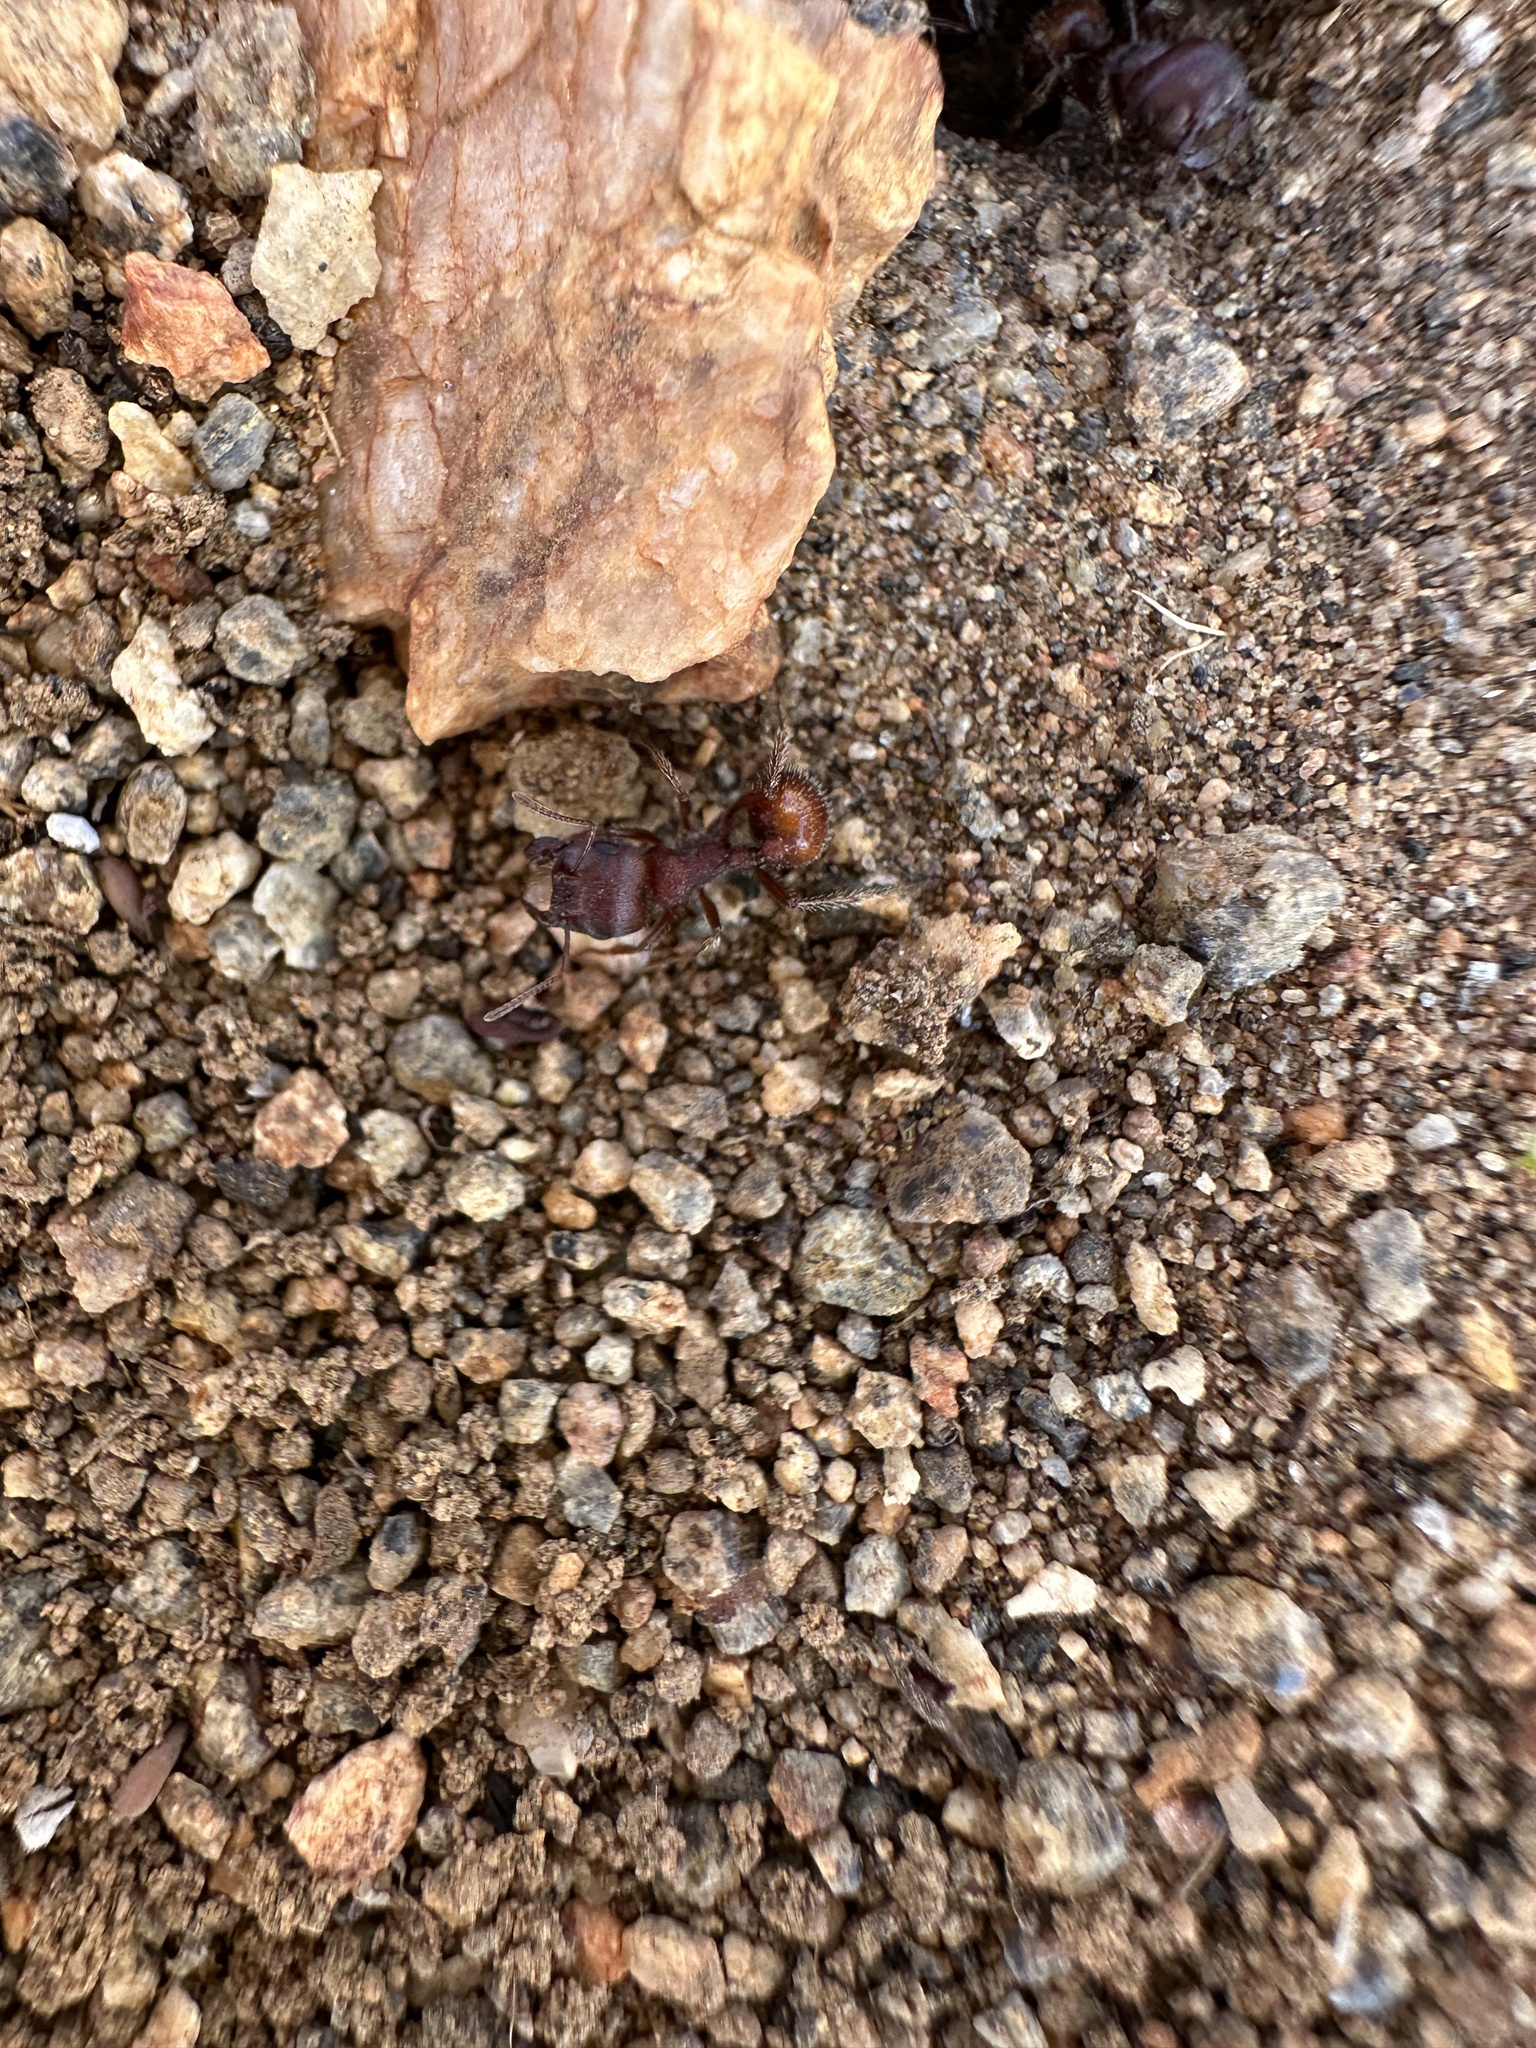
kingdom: Animalia
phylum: Arthropoda
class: Insecta
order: Hymenoptera
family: Formicidae
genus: Pogonomyrmex
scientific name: Pogonomyrmex rugosus
